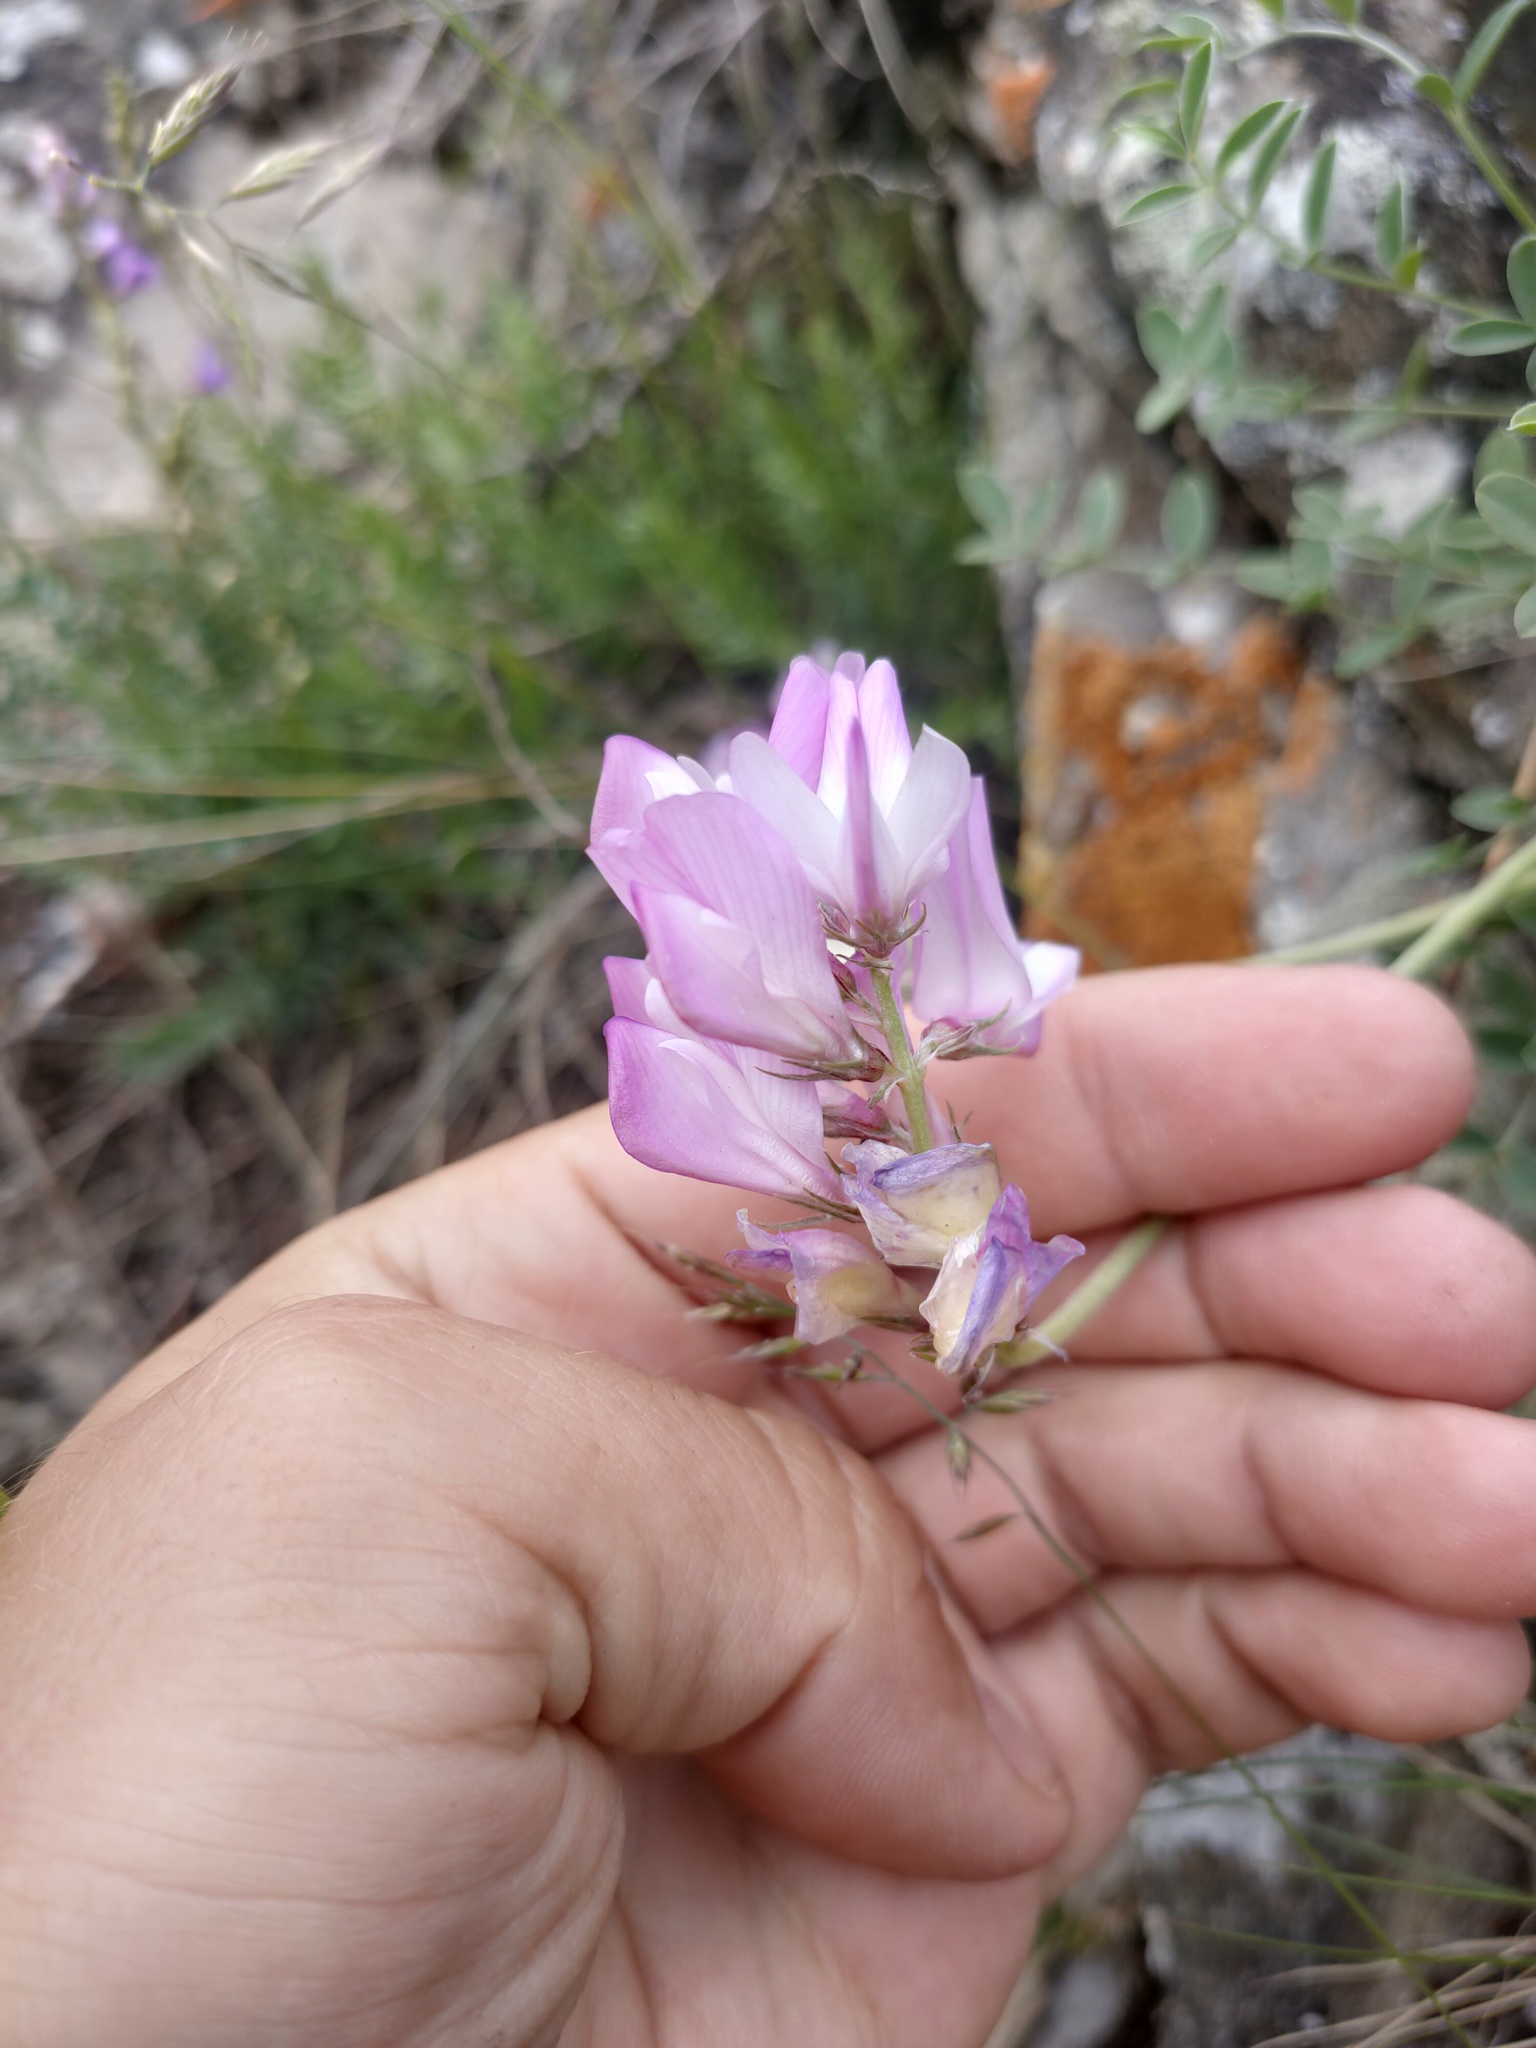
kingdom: Plantae
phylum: Tracheophyta
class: Magnoliopsida
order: Fabales
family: Fabaceae
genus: Hedysarum
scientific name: Hedysarum setigerum
